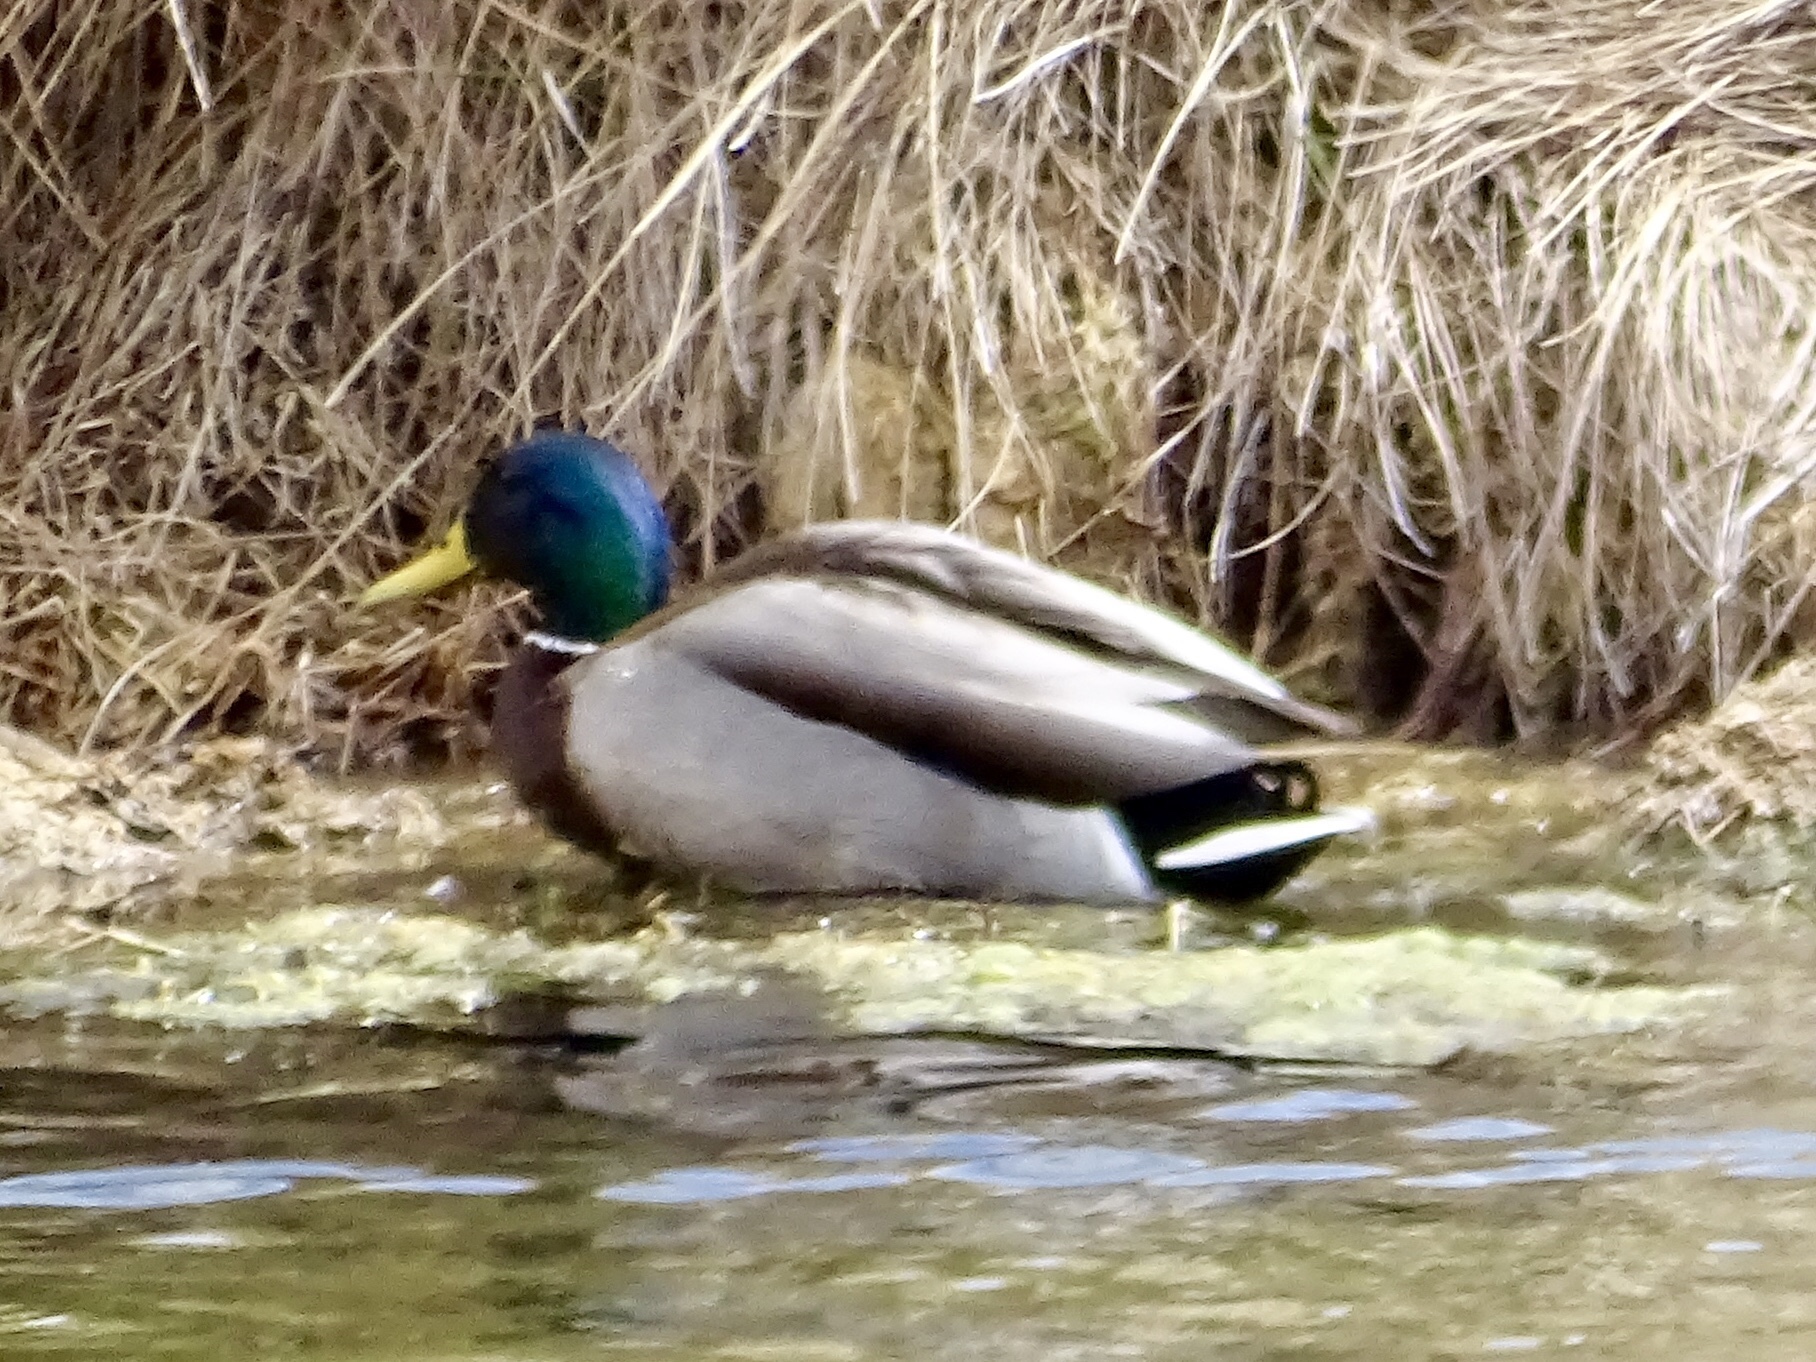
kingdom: Animalia
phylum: Chordata
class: Aves
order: Anseriformes
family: Anatidae
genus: Anas
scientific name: Anas platyrhynchos
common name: Mallard
